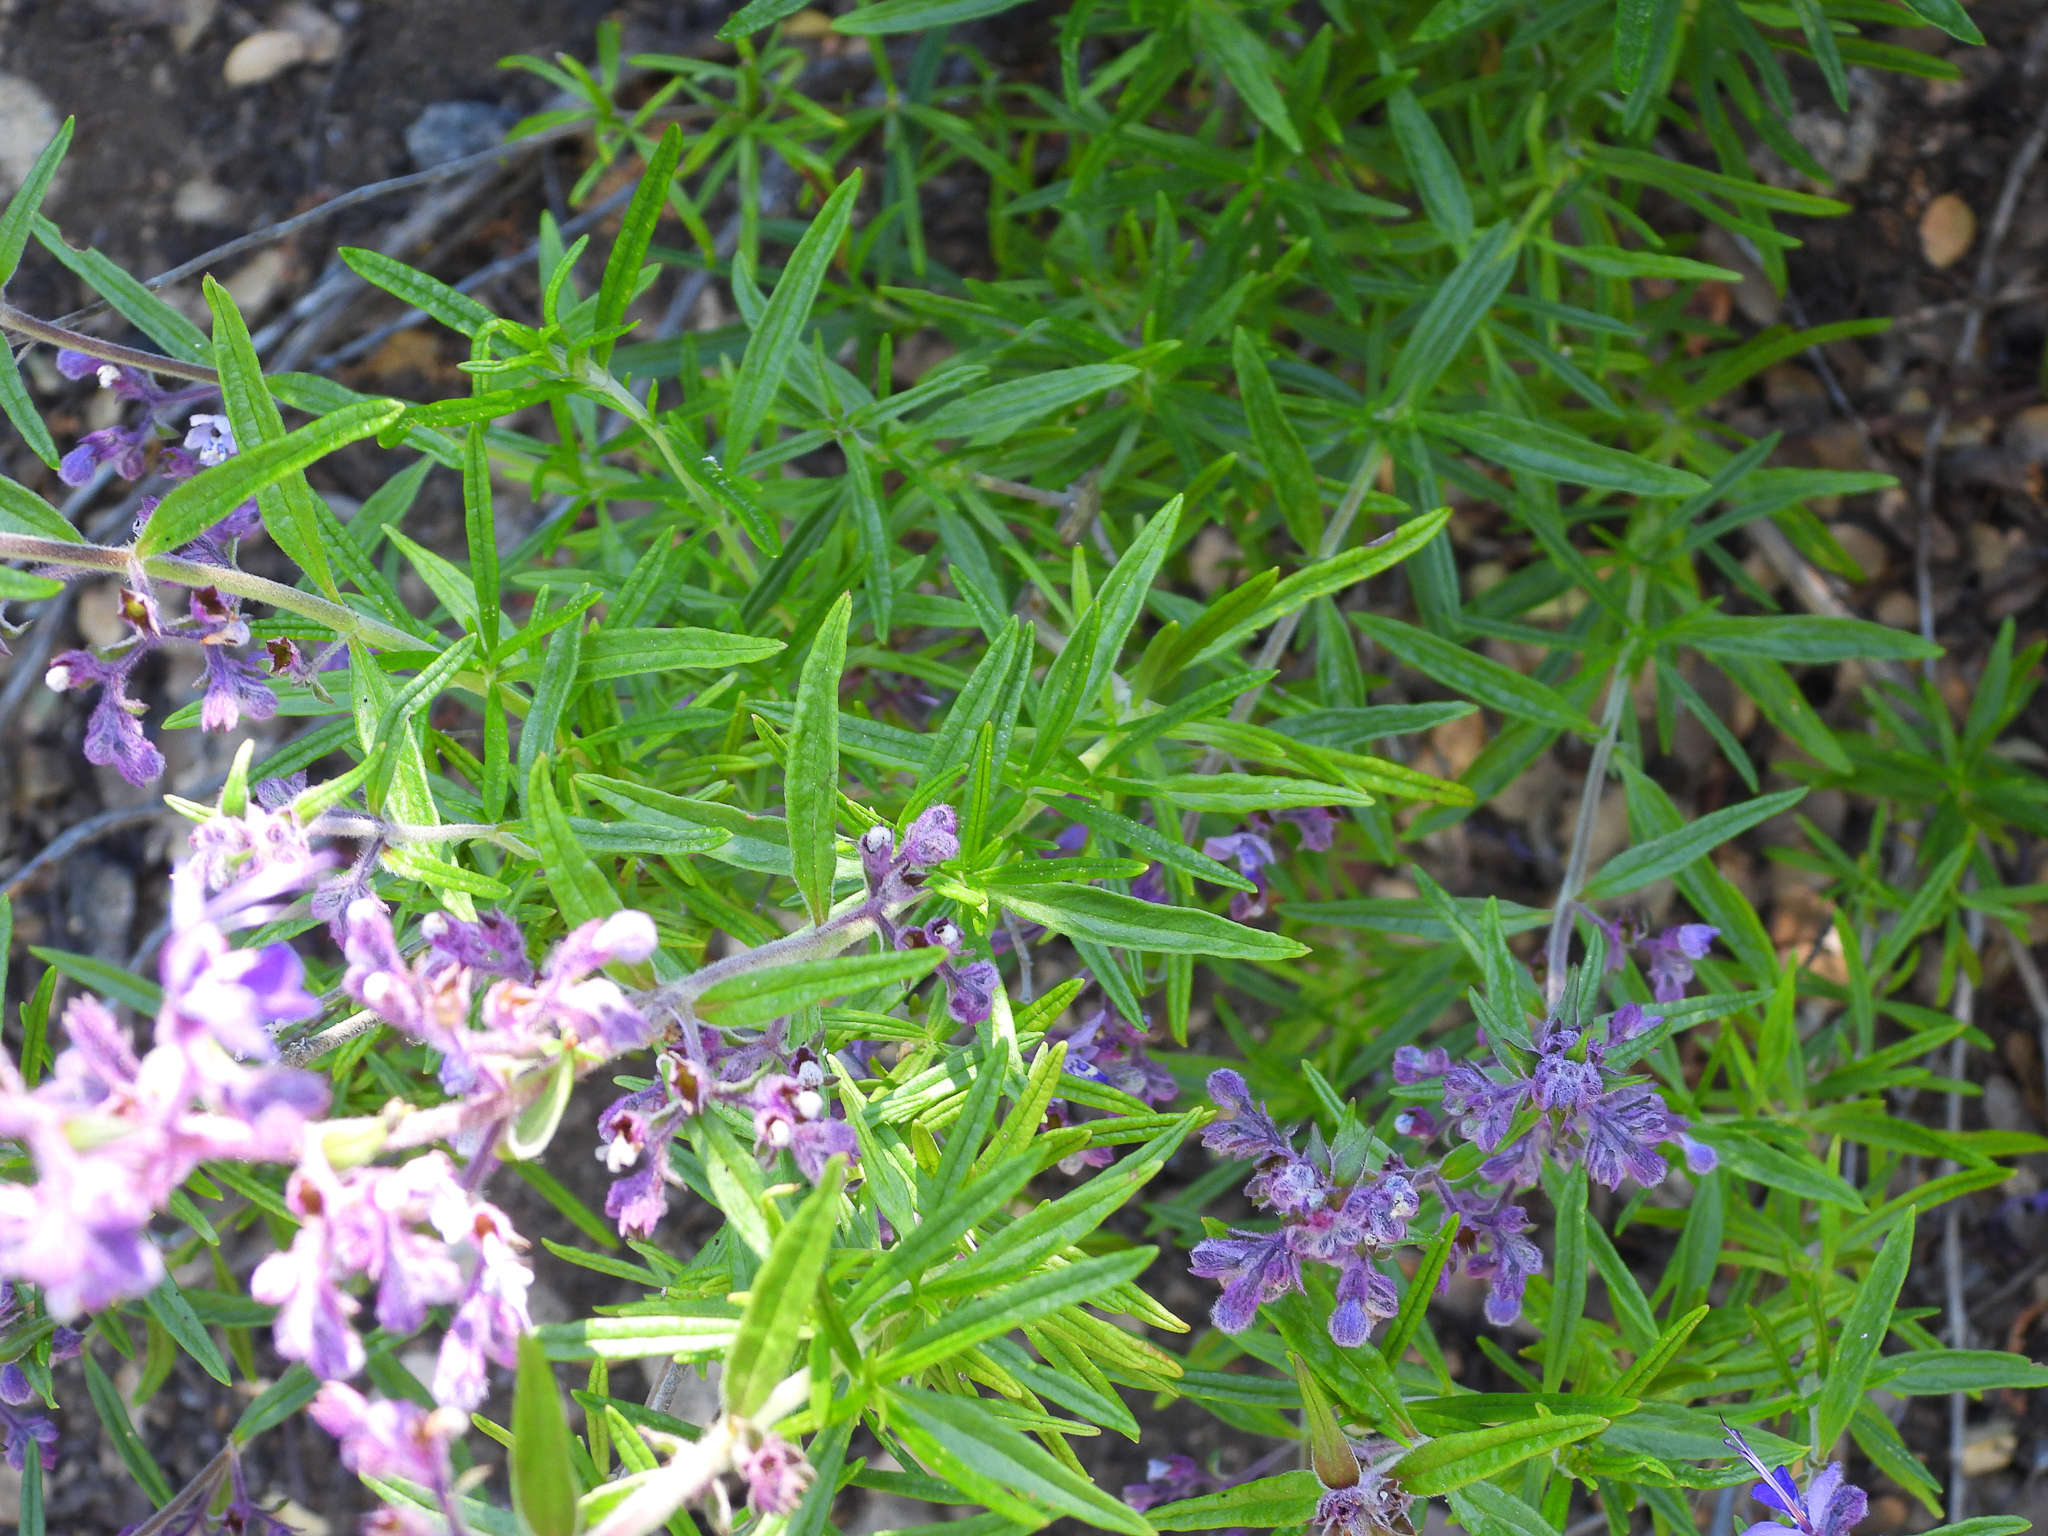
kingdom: Plantae
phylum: Tracheophyta
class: Magnoliopsida
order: Lamiales
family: Lamiaceae
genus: Trichostema
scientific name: Trichostema parishii
